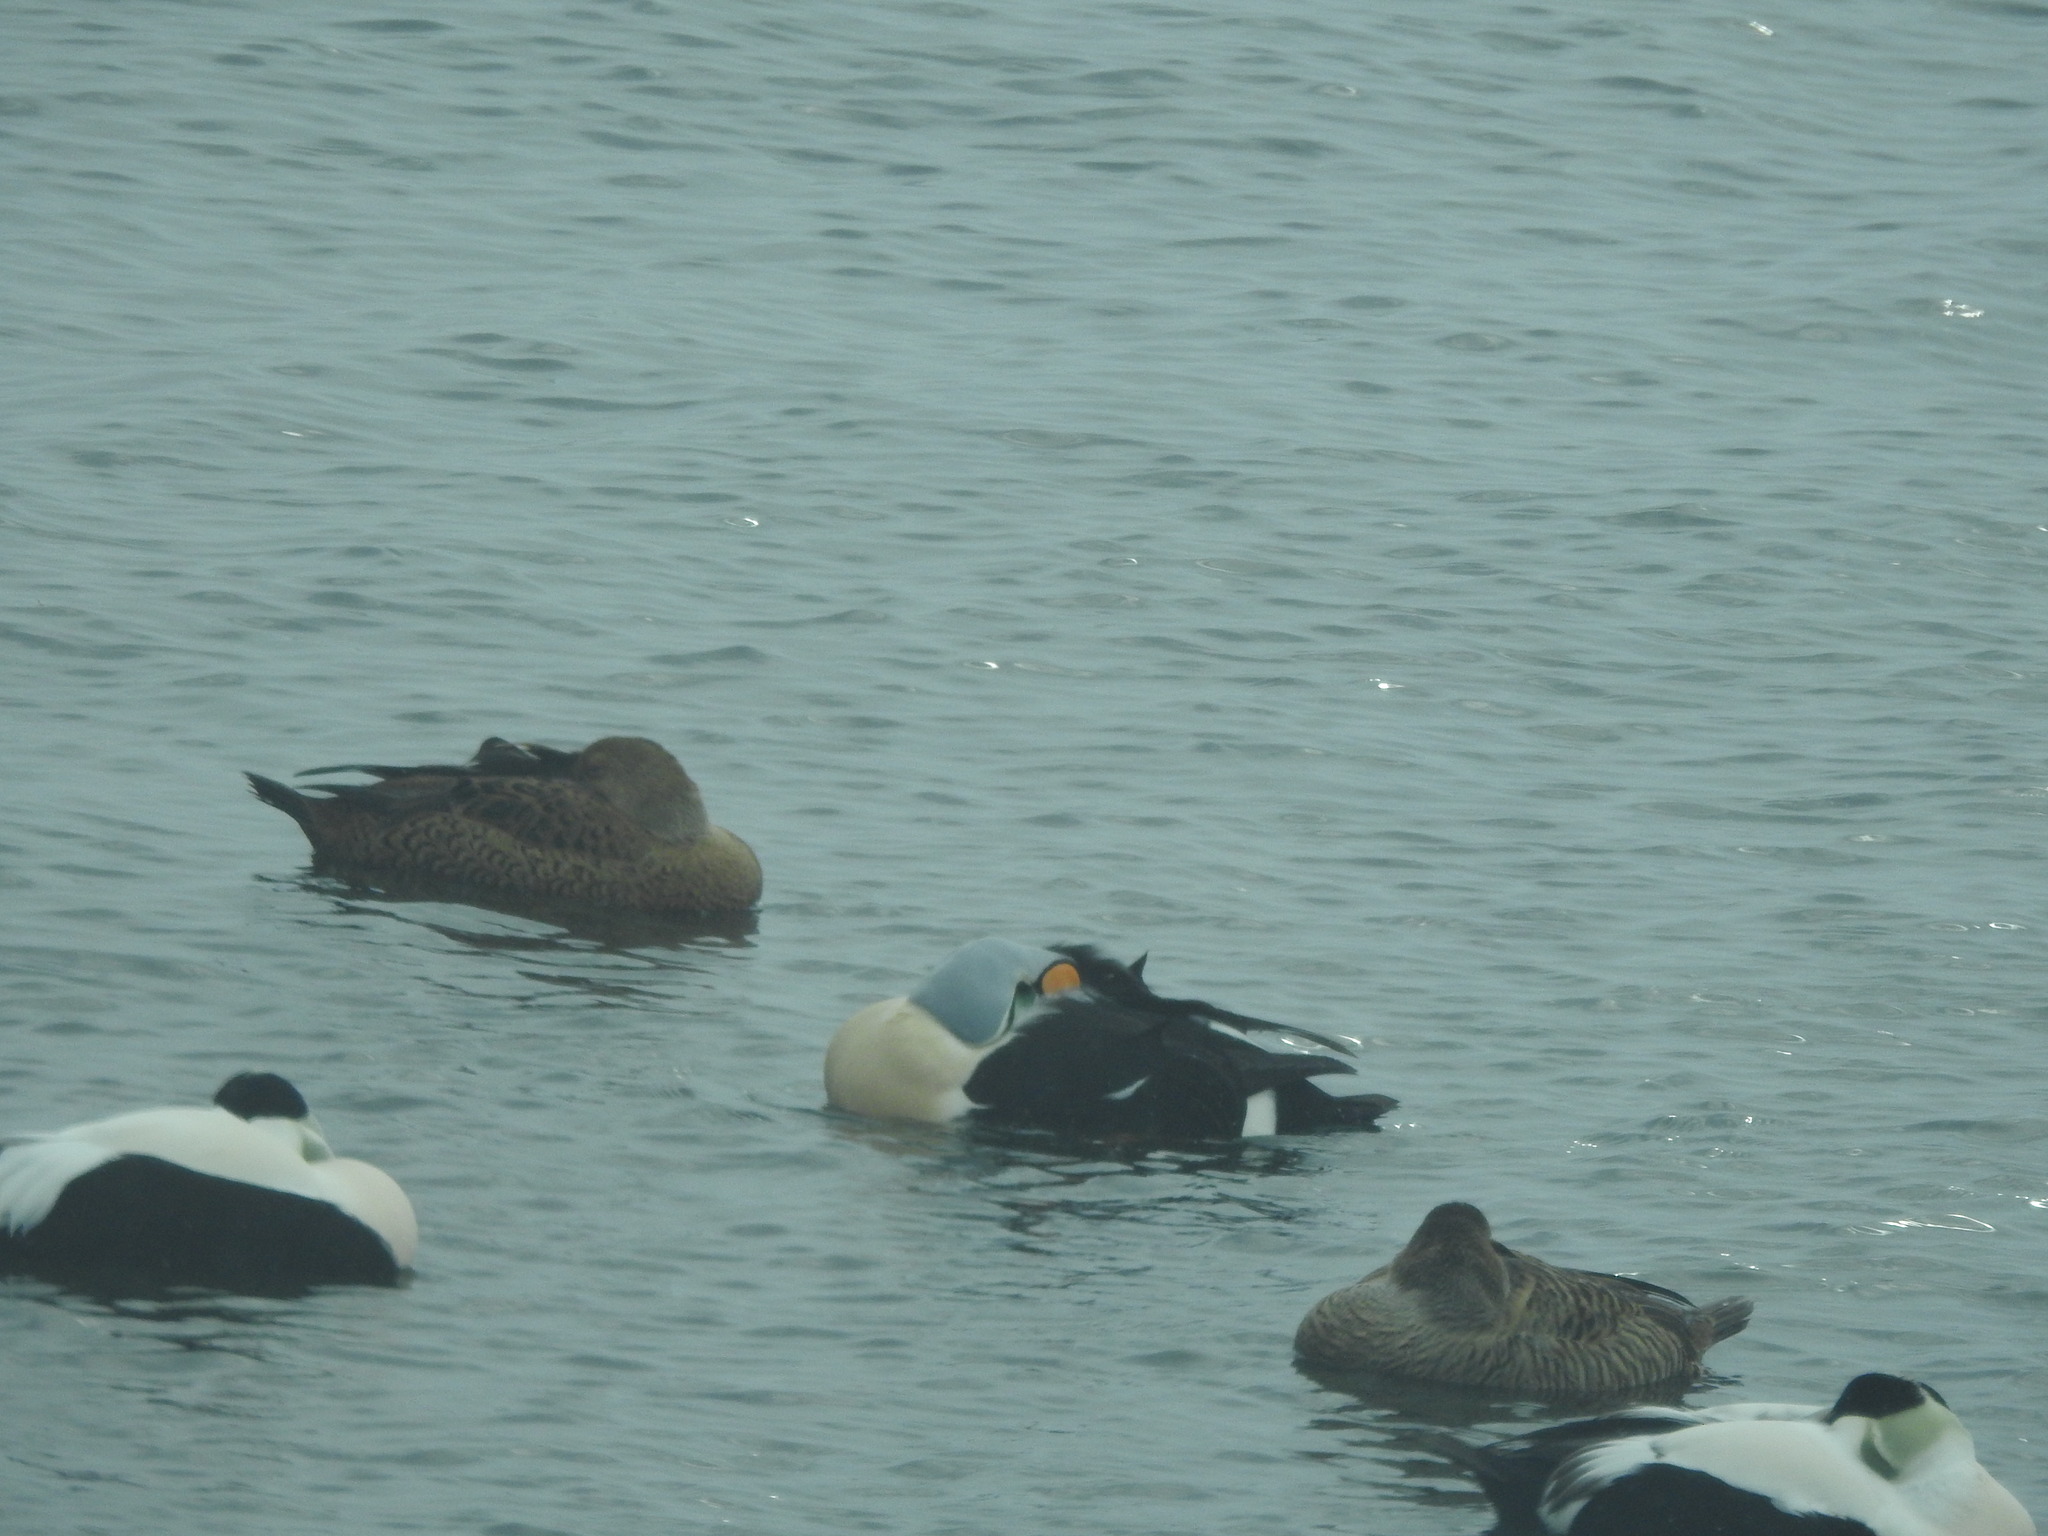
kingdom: Animalia
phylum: Chordata
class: Aves
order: Anseriformes
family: Anatidae
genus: Somateria
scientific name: Somateria spectabilis
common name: King eider
